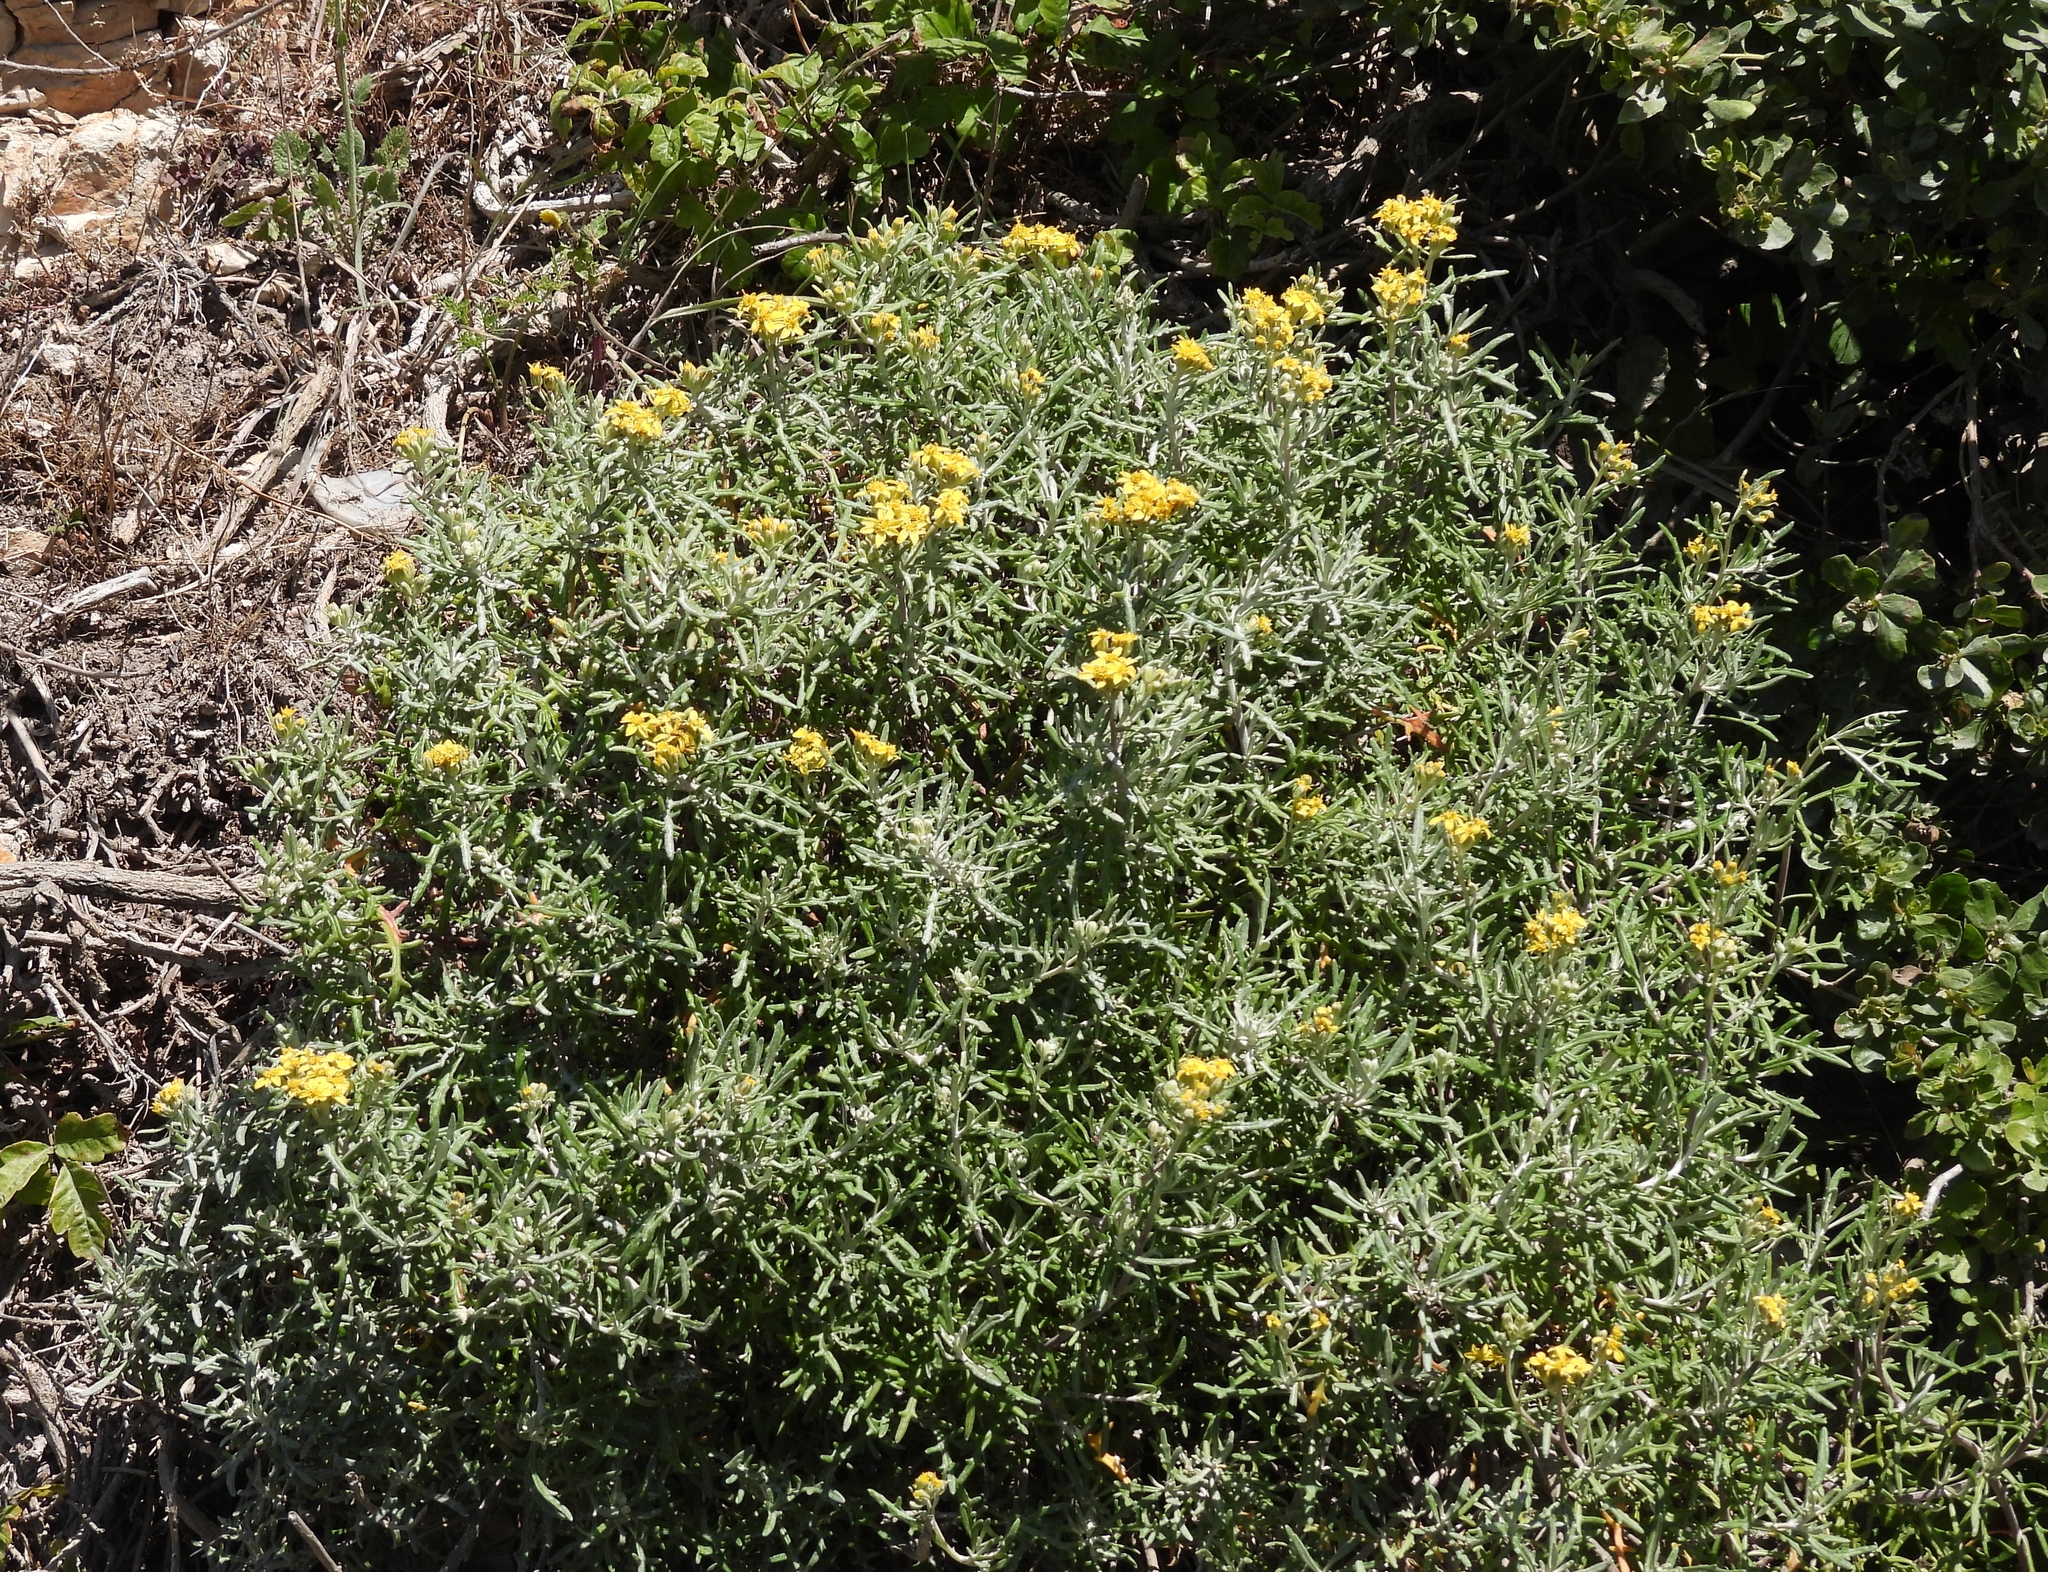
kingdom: Plantae
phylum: Tracheophyta
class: Magnoliopsida
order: Asterales
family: Asteraceae
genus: Eriophyllum
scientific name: Eriophyllum staechadifolium
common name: Lizardtail
